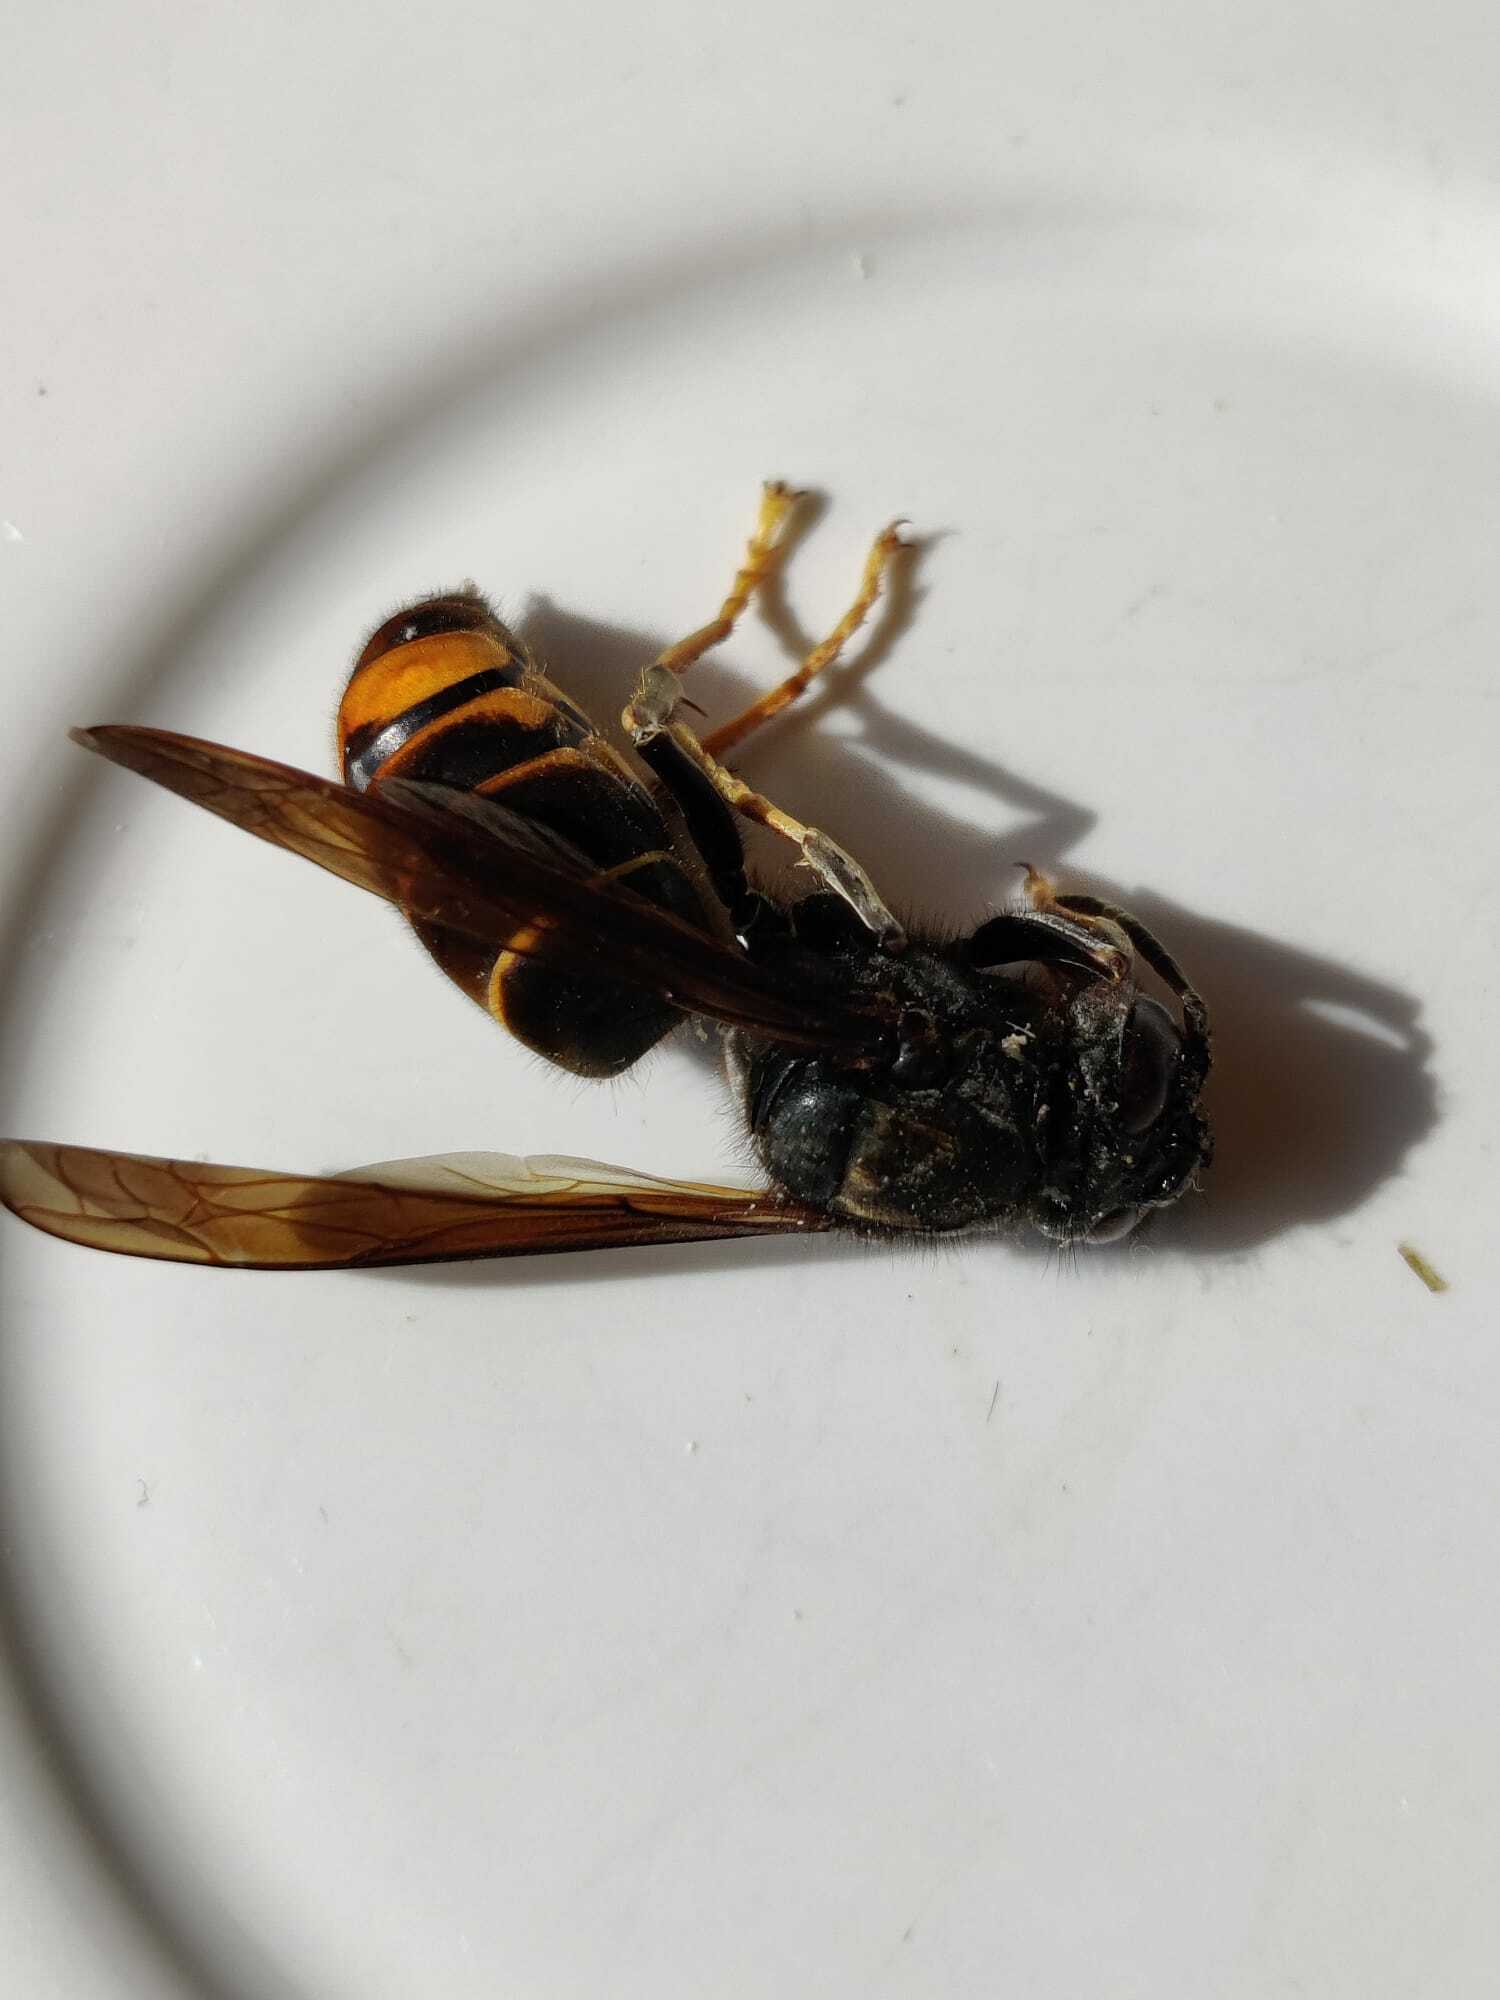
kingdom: Animalia
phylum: Arthropoda
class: Insecta
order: Hymenoptera
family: Vespidae
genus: Vespa
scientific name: Vespa velutina
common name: Asian hornet
